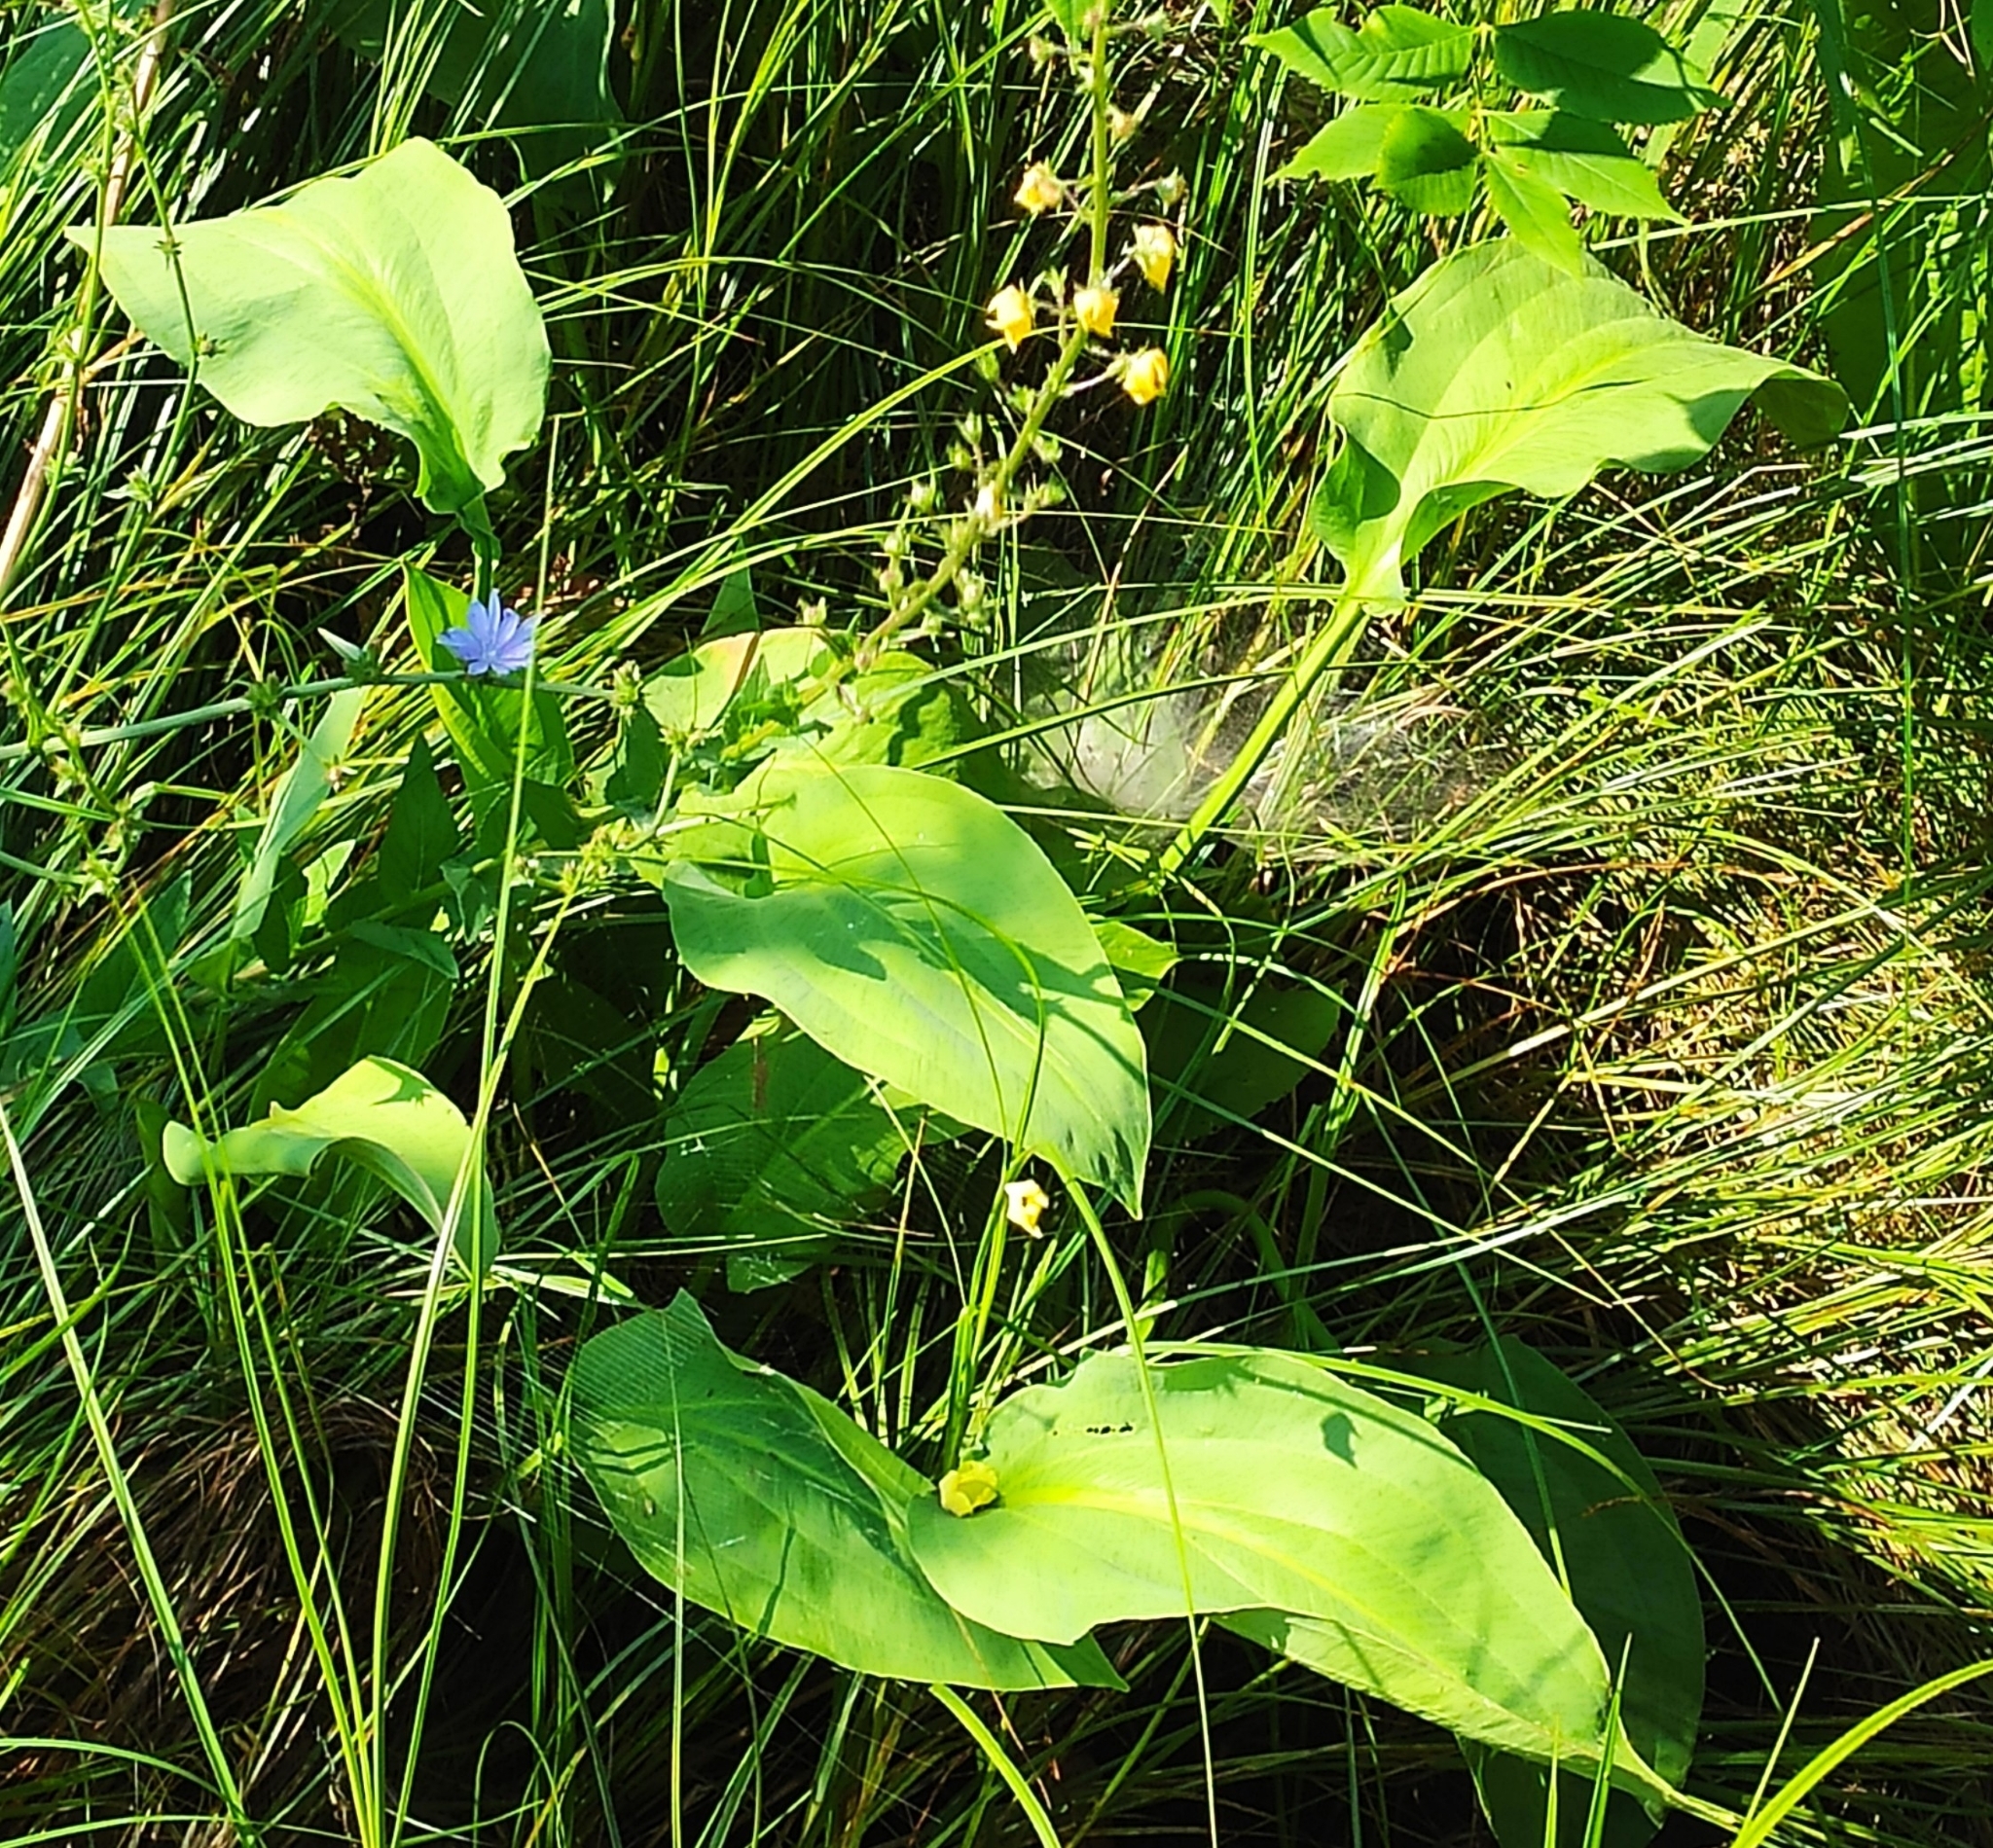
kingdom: Plantae
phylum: Tracheophyta
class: Liliopsida
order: Alismatales
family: Alismataceae
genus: Alisma
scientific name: Alisma plantago-aquatica
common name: Water-plantain
